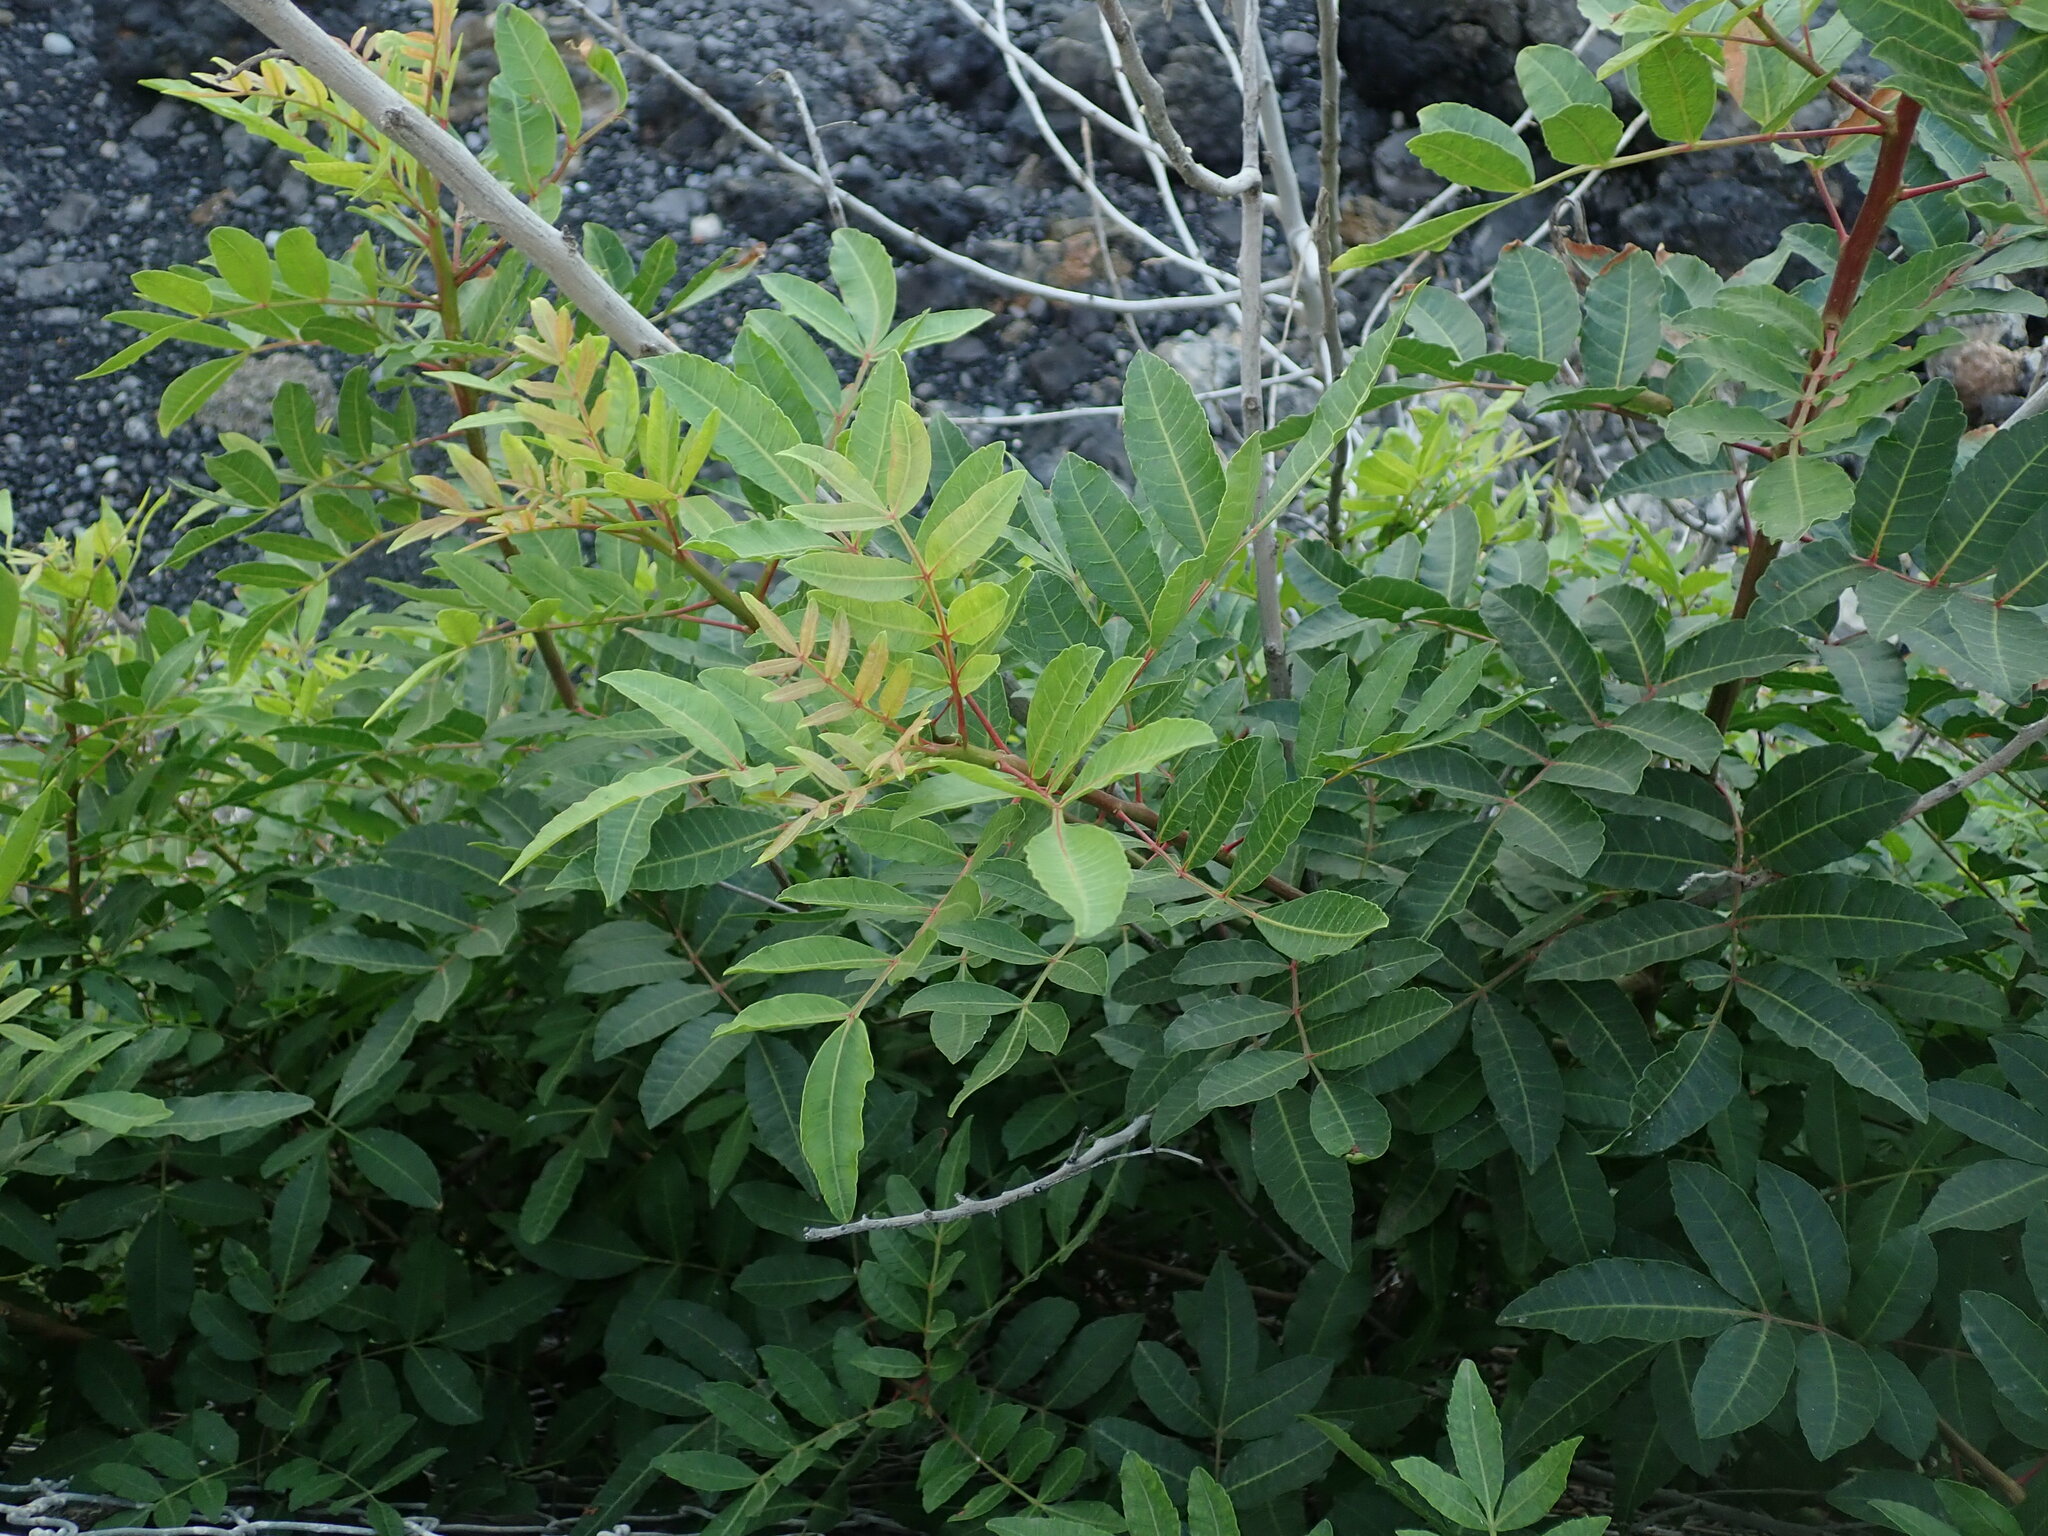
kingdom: Plantae
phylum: Tracheophyta
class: Magnoliopsida
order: Sapindales
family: Anacardiaceae
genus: Schinus
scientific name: Schinus terebinthifolia
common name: Brazilian peppertree
